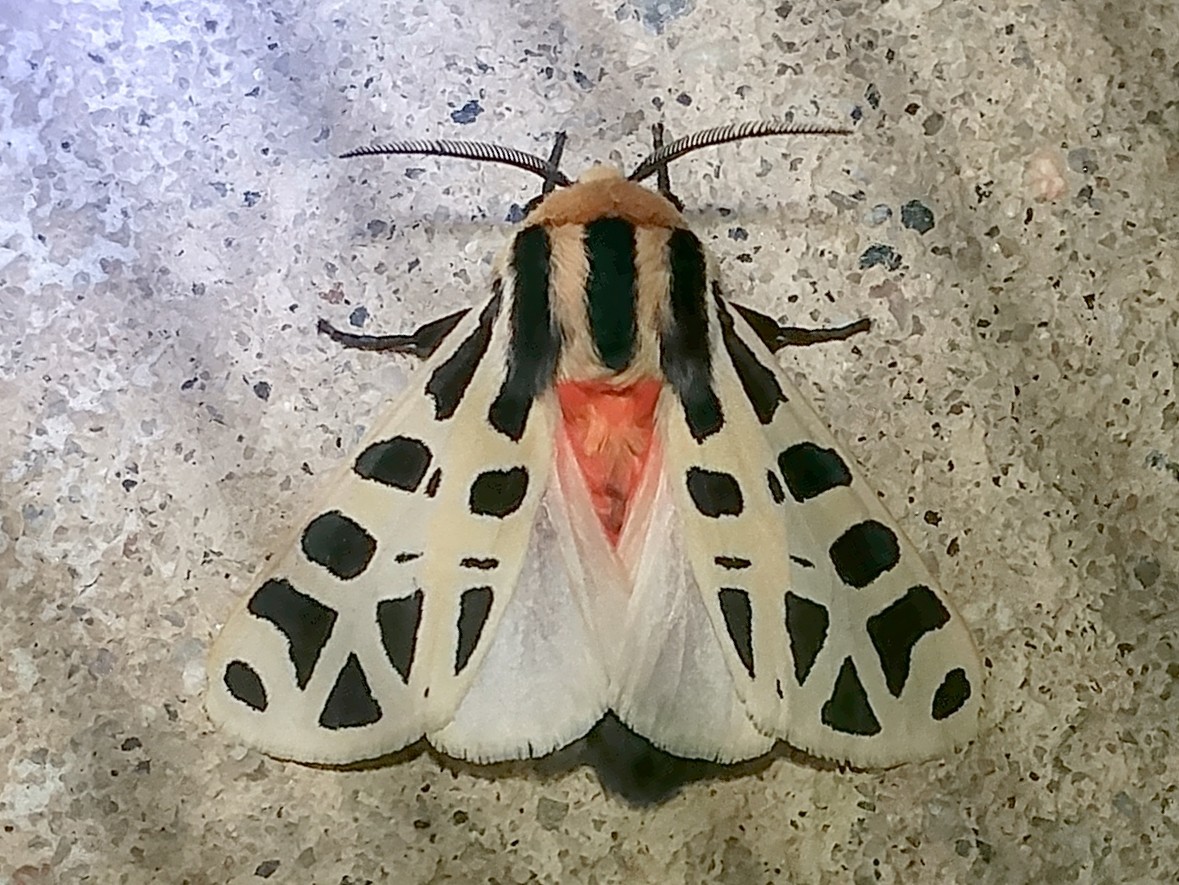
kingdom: Animalia
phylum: Arthropoda
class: Insecta
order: Lepidoptera
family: Erebidae
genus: Apantesis
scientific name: Apantesis
